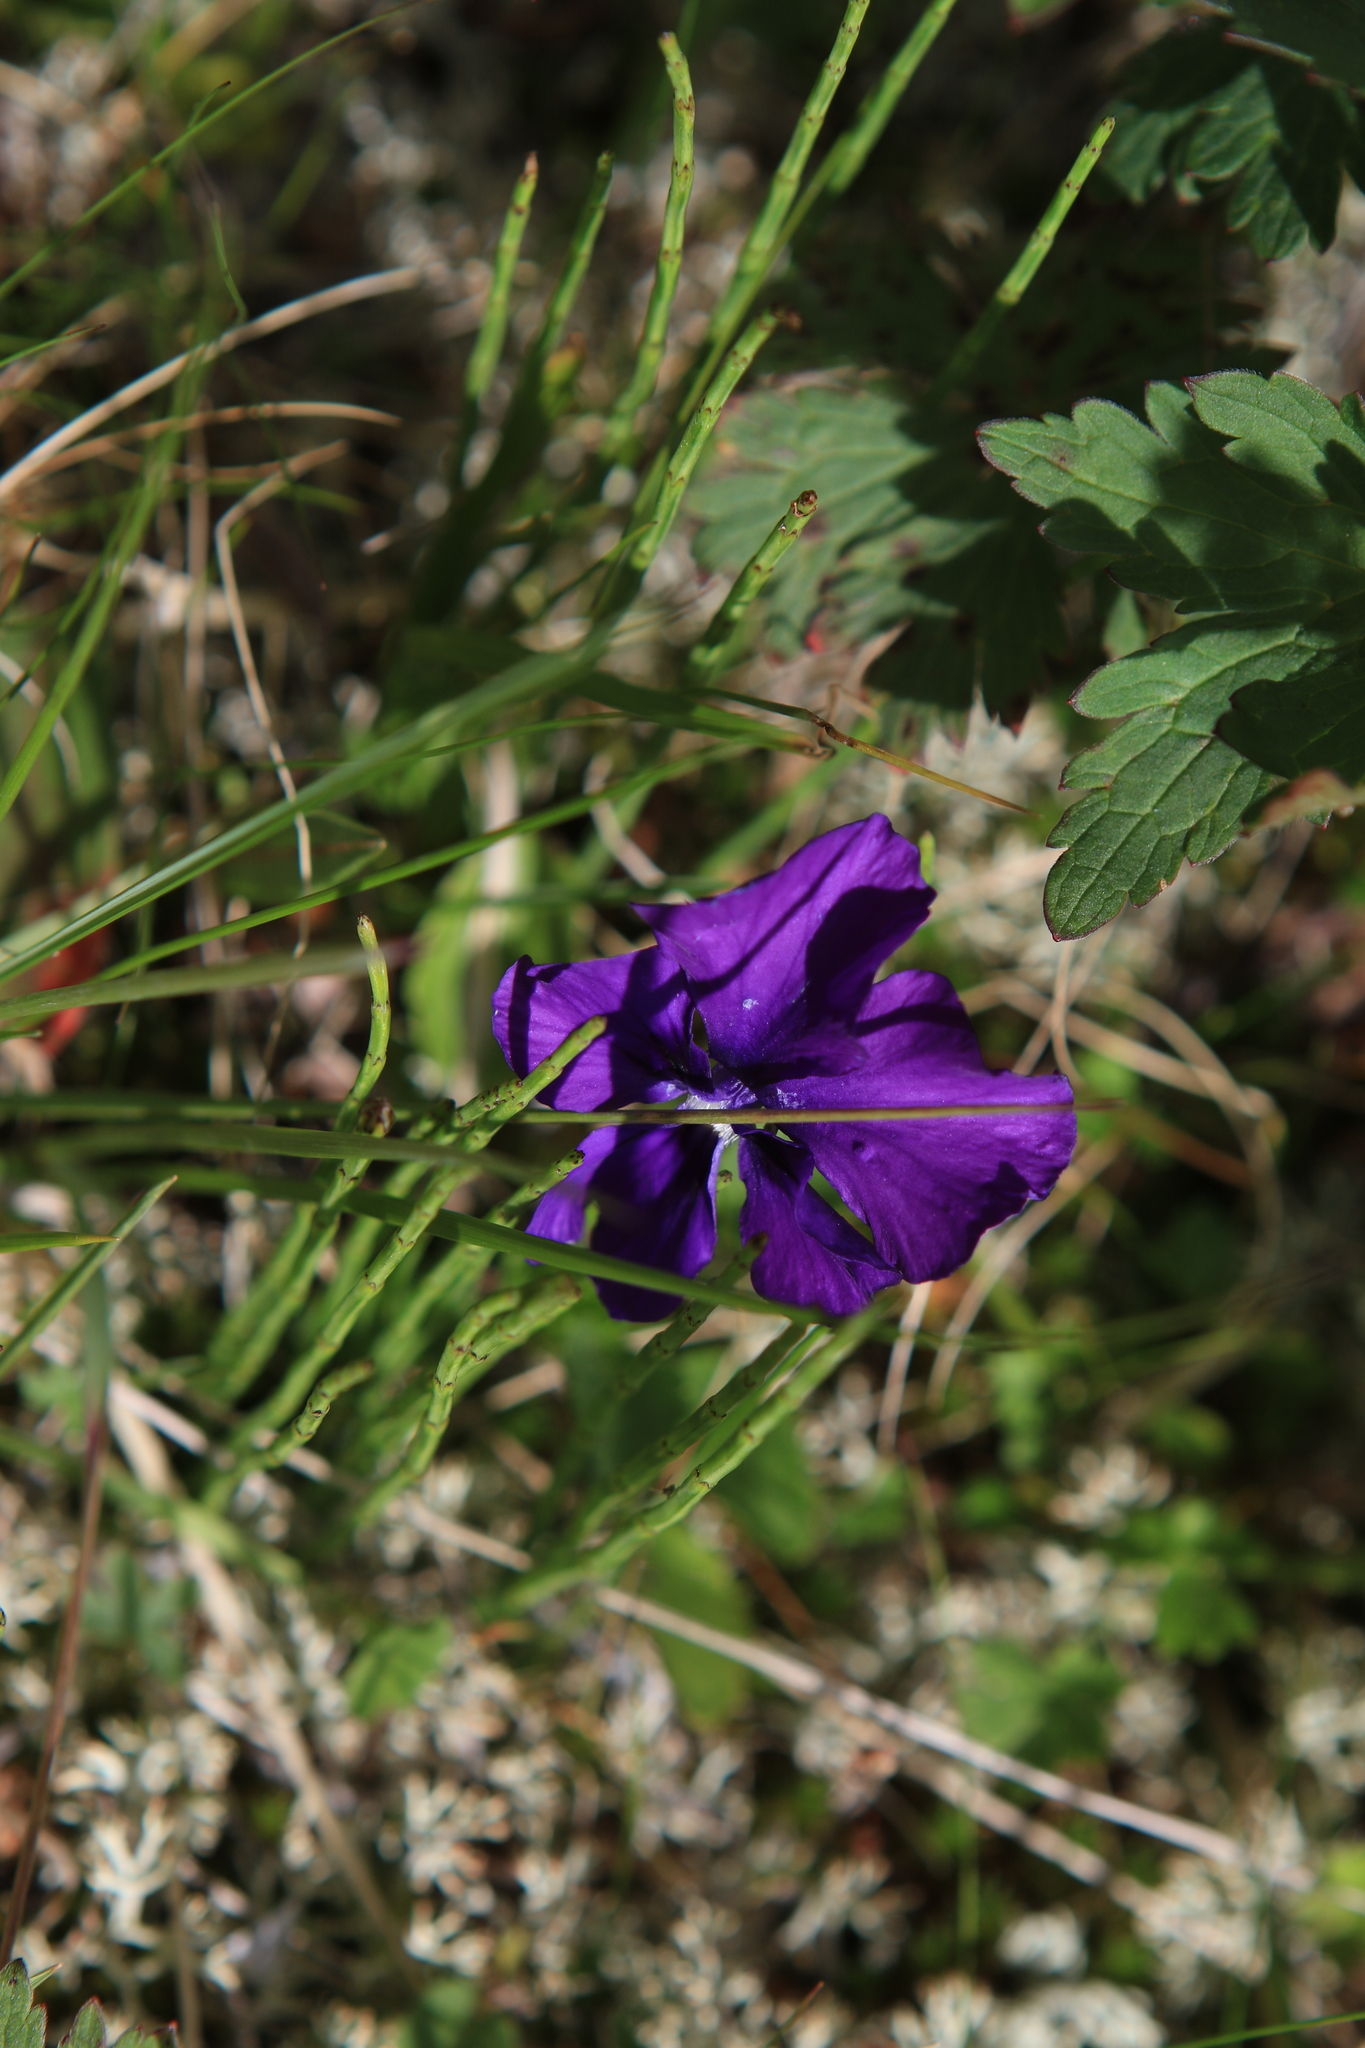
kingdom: Plantae
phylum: Tracheophyta
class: Magnoliopsida
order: Malpighiales
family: Violaceae
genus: Viola
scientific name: Viola altaica
